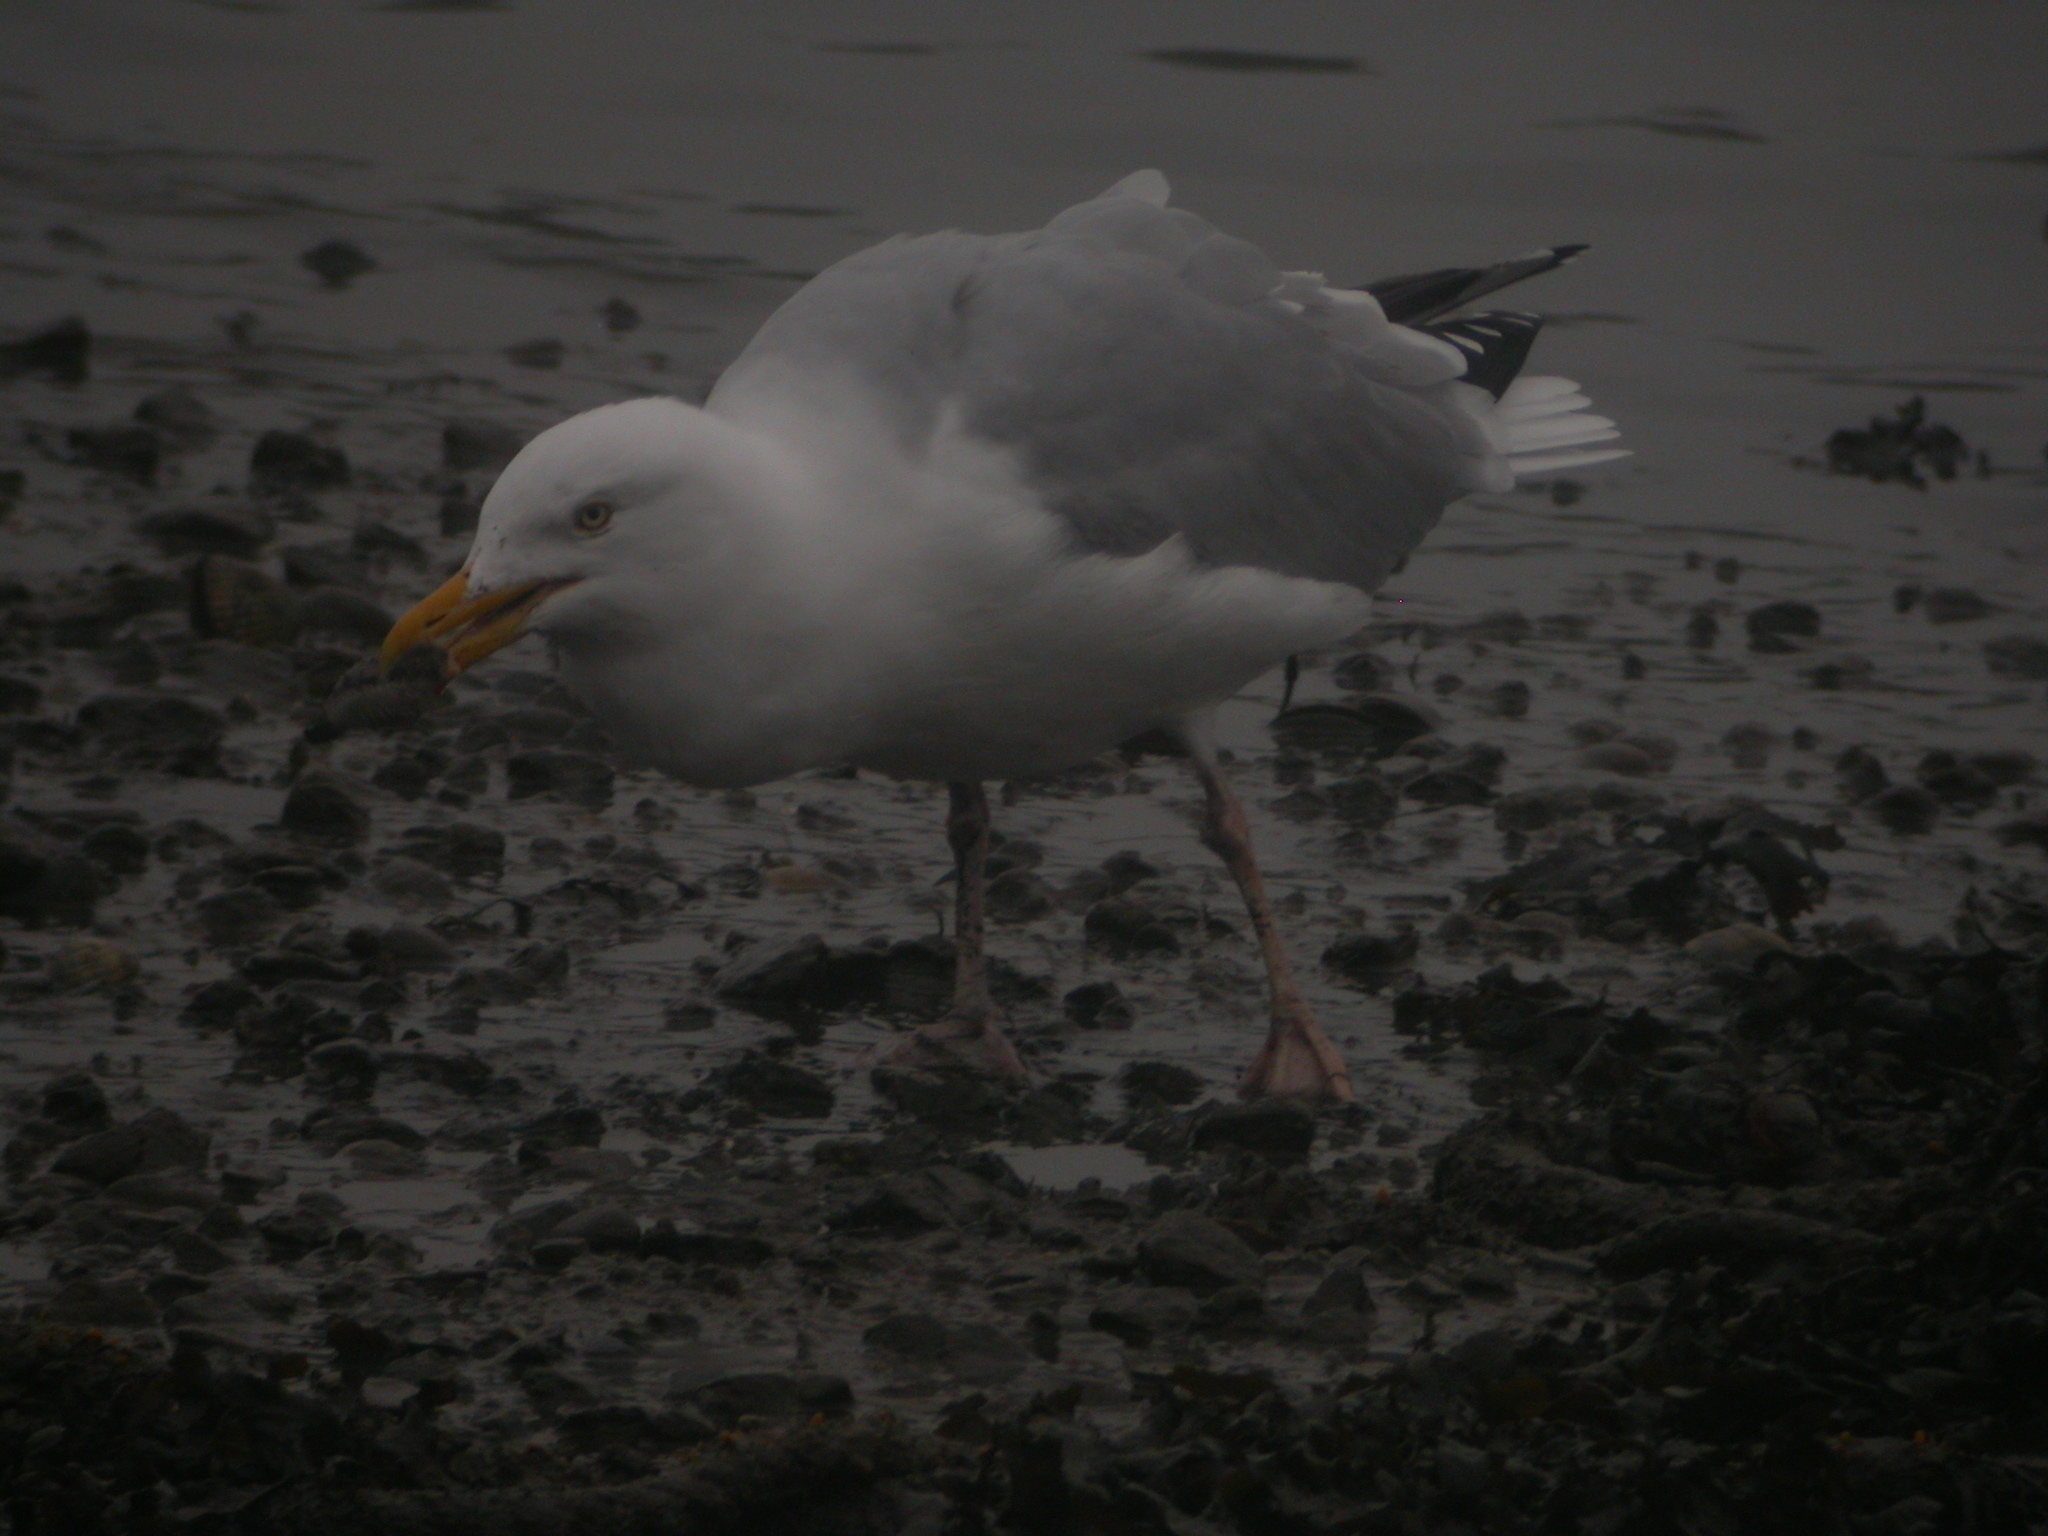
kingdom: Animalia
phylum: Chordata
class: Aves
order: Charadriiformes
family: Laridae
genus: Larus
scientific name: Larus argentatus
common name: Herring gull
